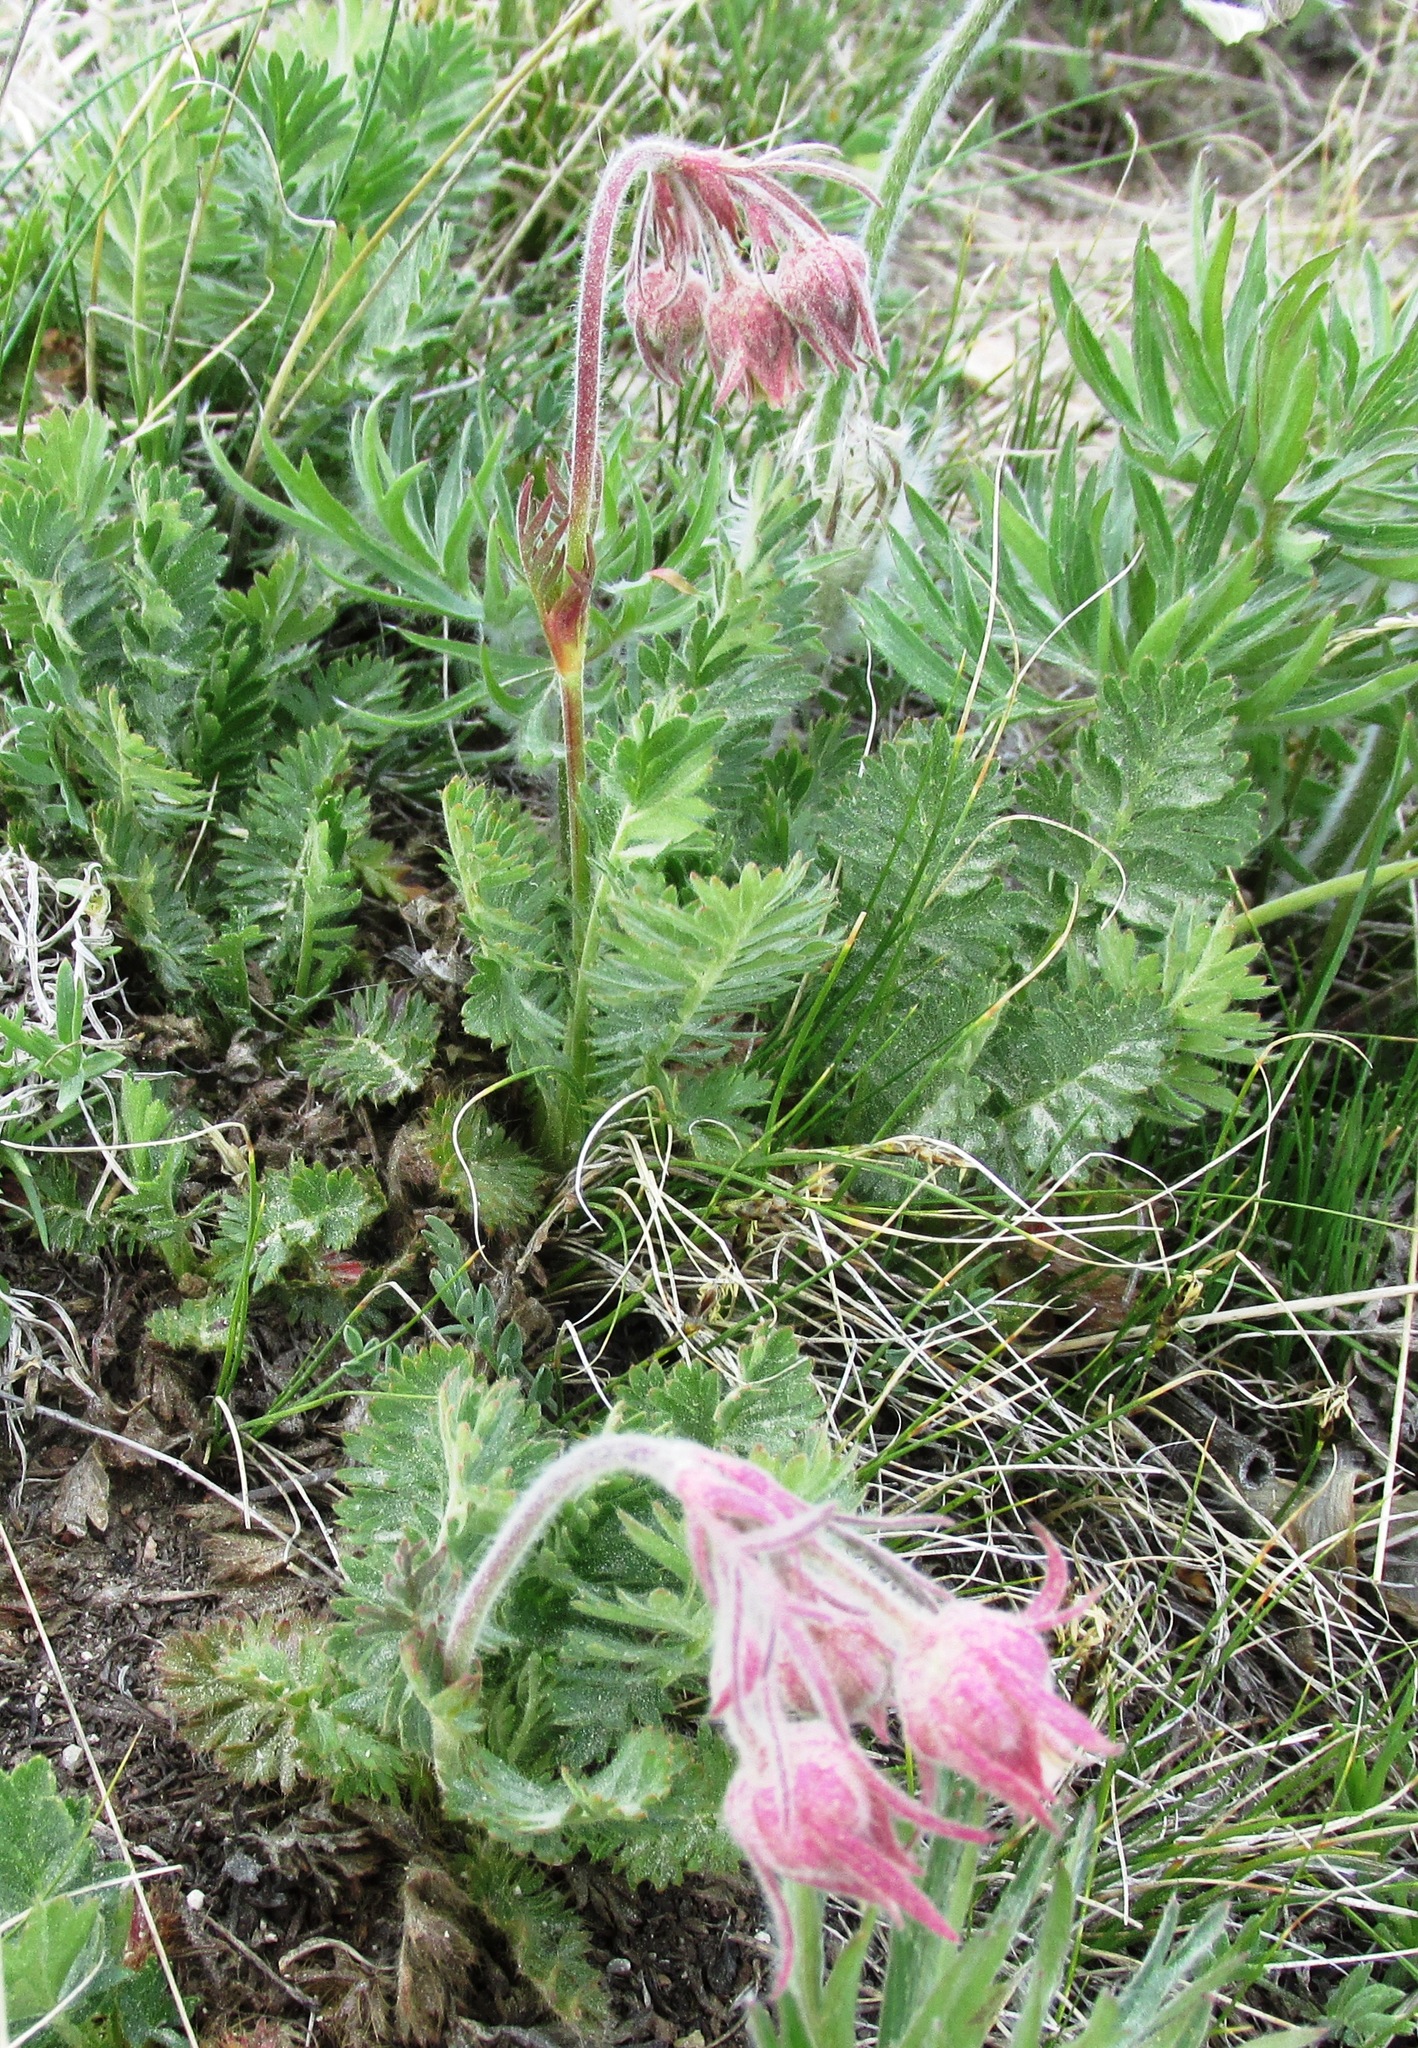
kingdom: Plantae
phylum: Tracheophyta
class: Magnoliopsida
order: Rosales
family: Rosaceae
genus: Geum
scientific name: Geum triflorum
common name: Old man's whiskers
